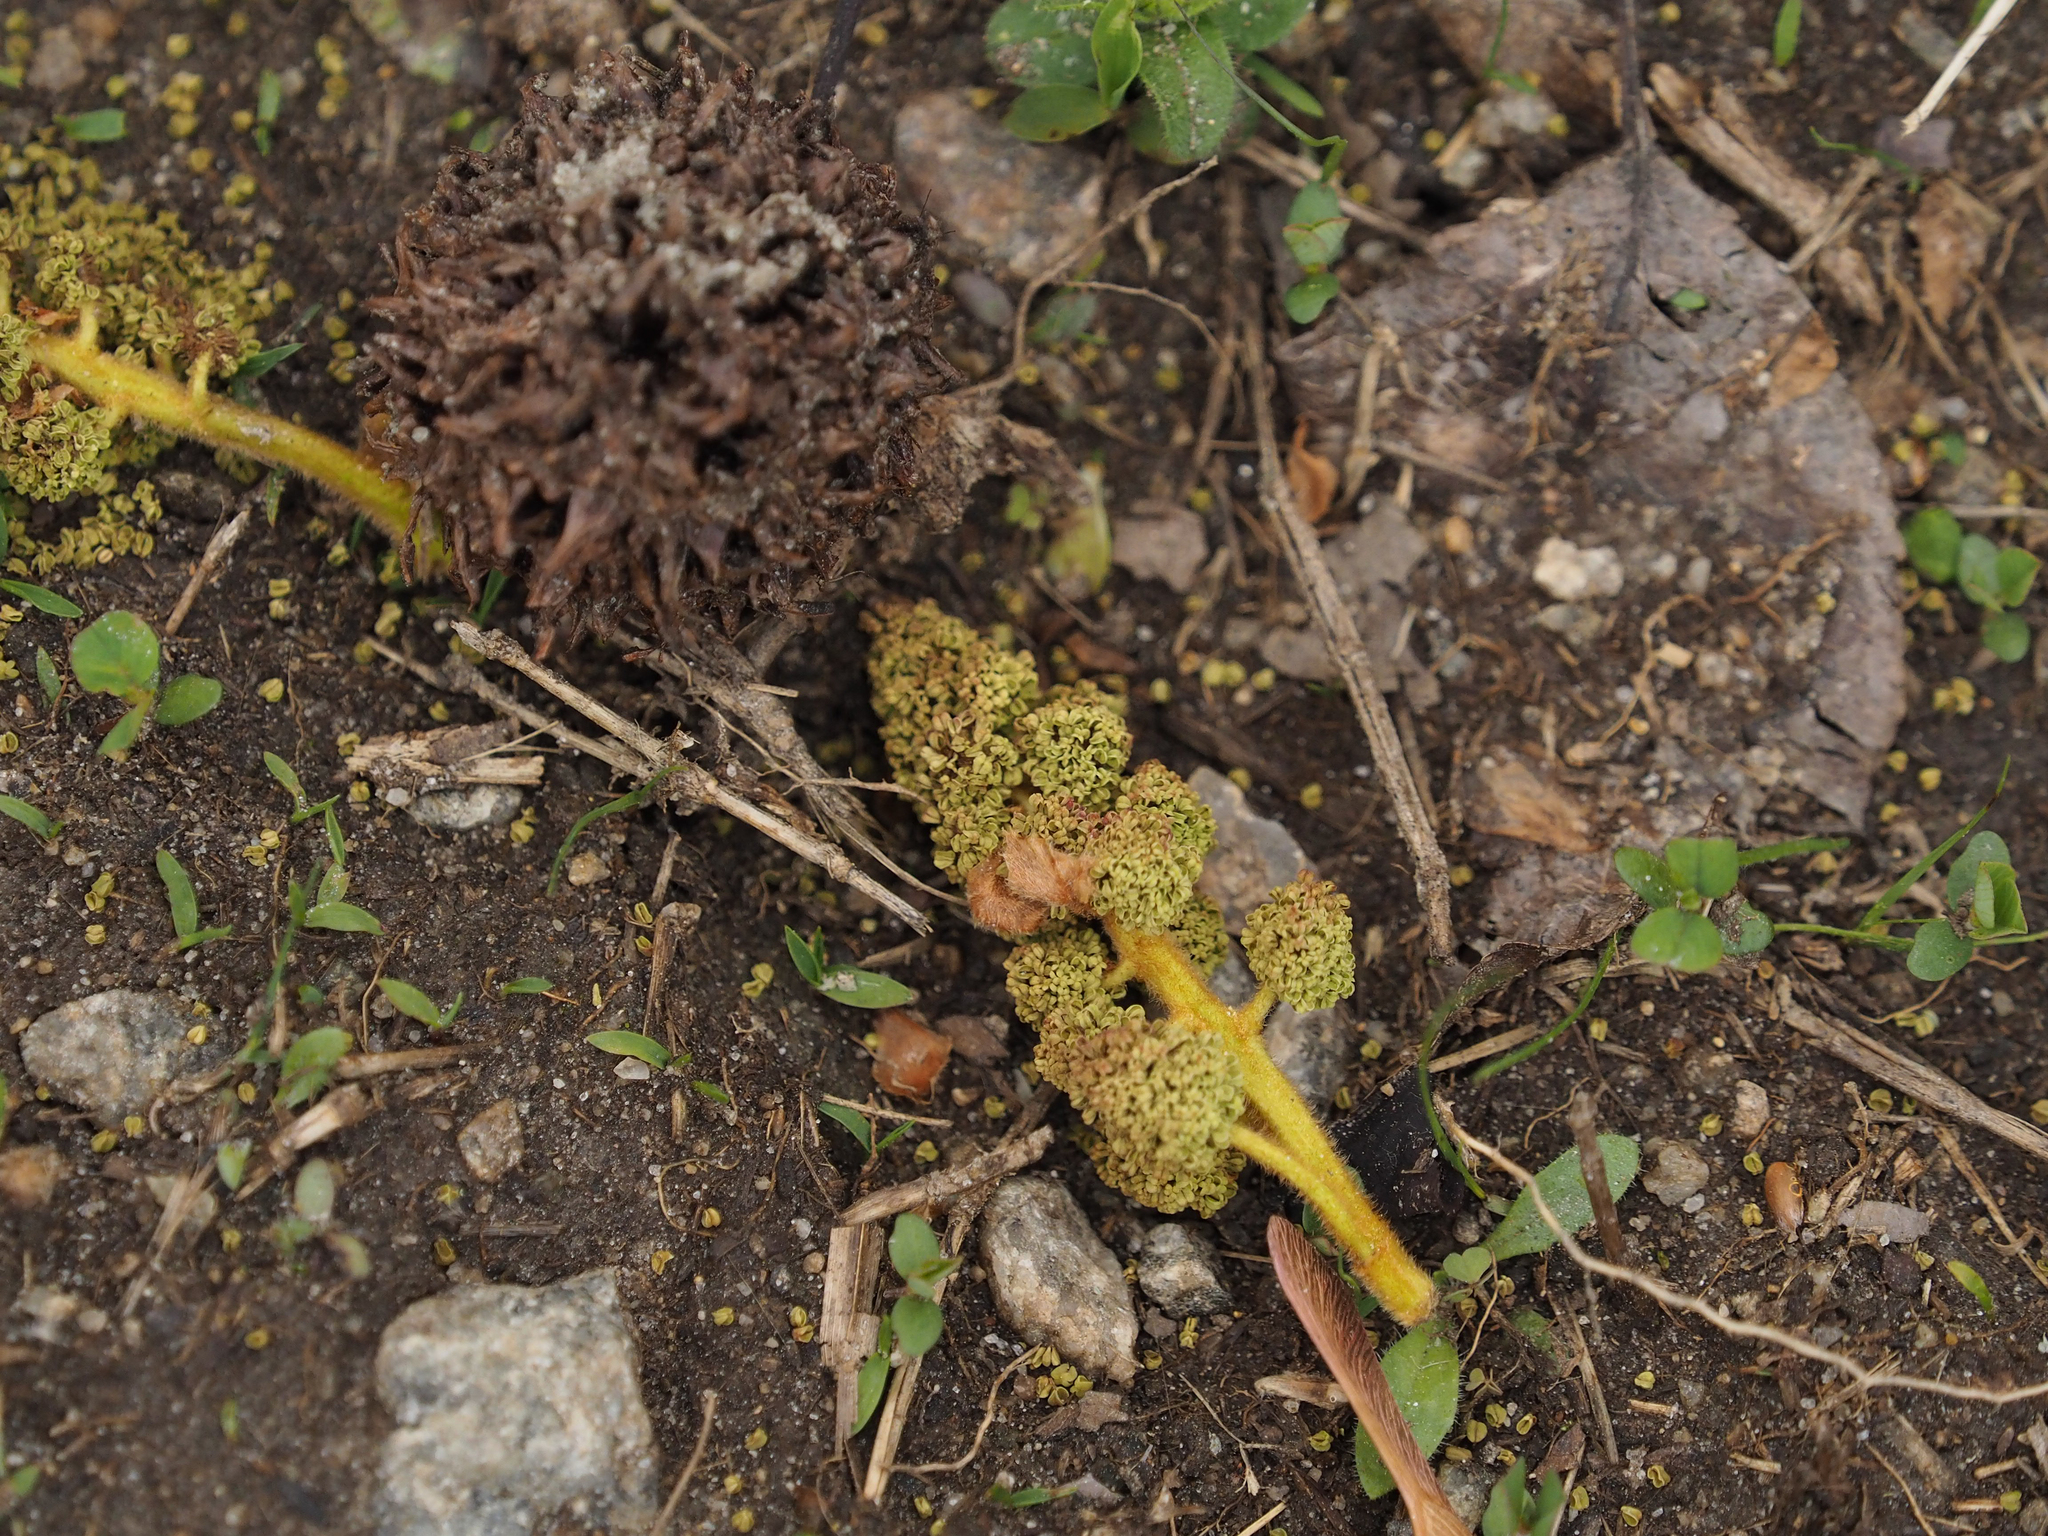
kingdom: Plantae
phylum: Tracheophyta
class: Magnoliopsida
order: Saxifragales
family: Altingiaceae
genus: Liquidambar
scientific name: Liquidambar styraciflua
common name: Sweet gum
